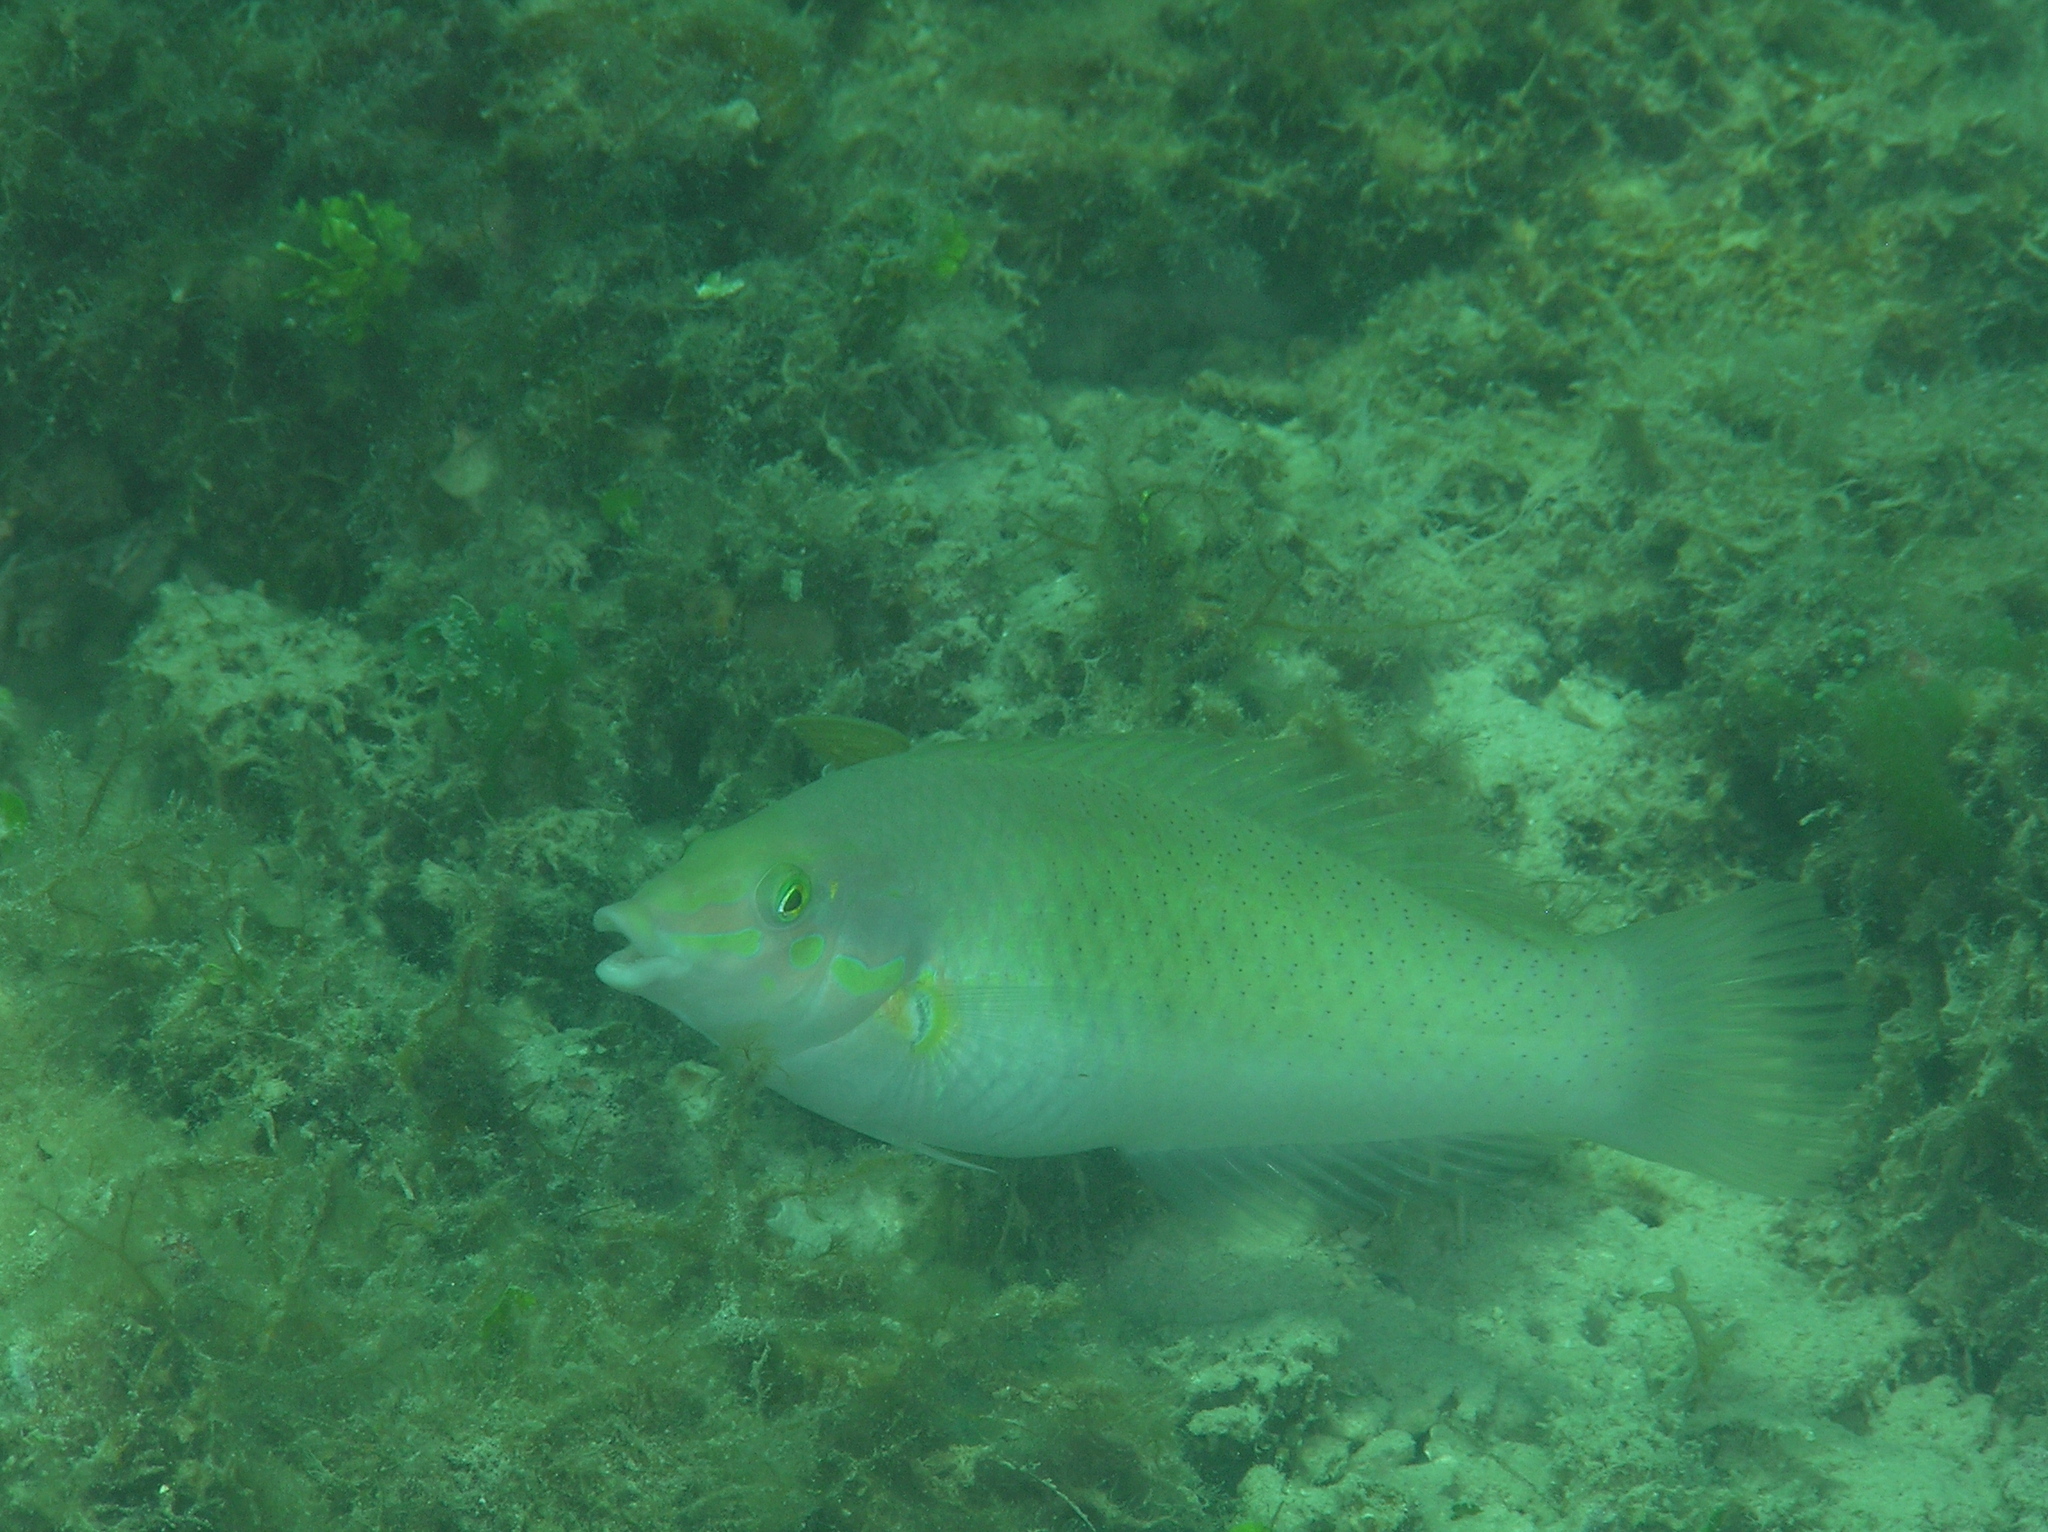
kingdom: Animalia
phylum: Chordata
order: Perciformes
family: Labridae
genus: Halichoeres
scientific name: Halichoeres chloropterus
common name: Pastel-green wrasse
